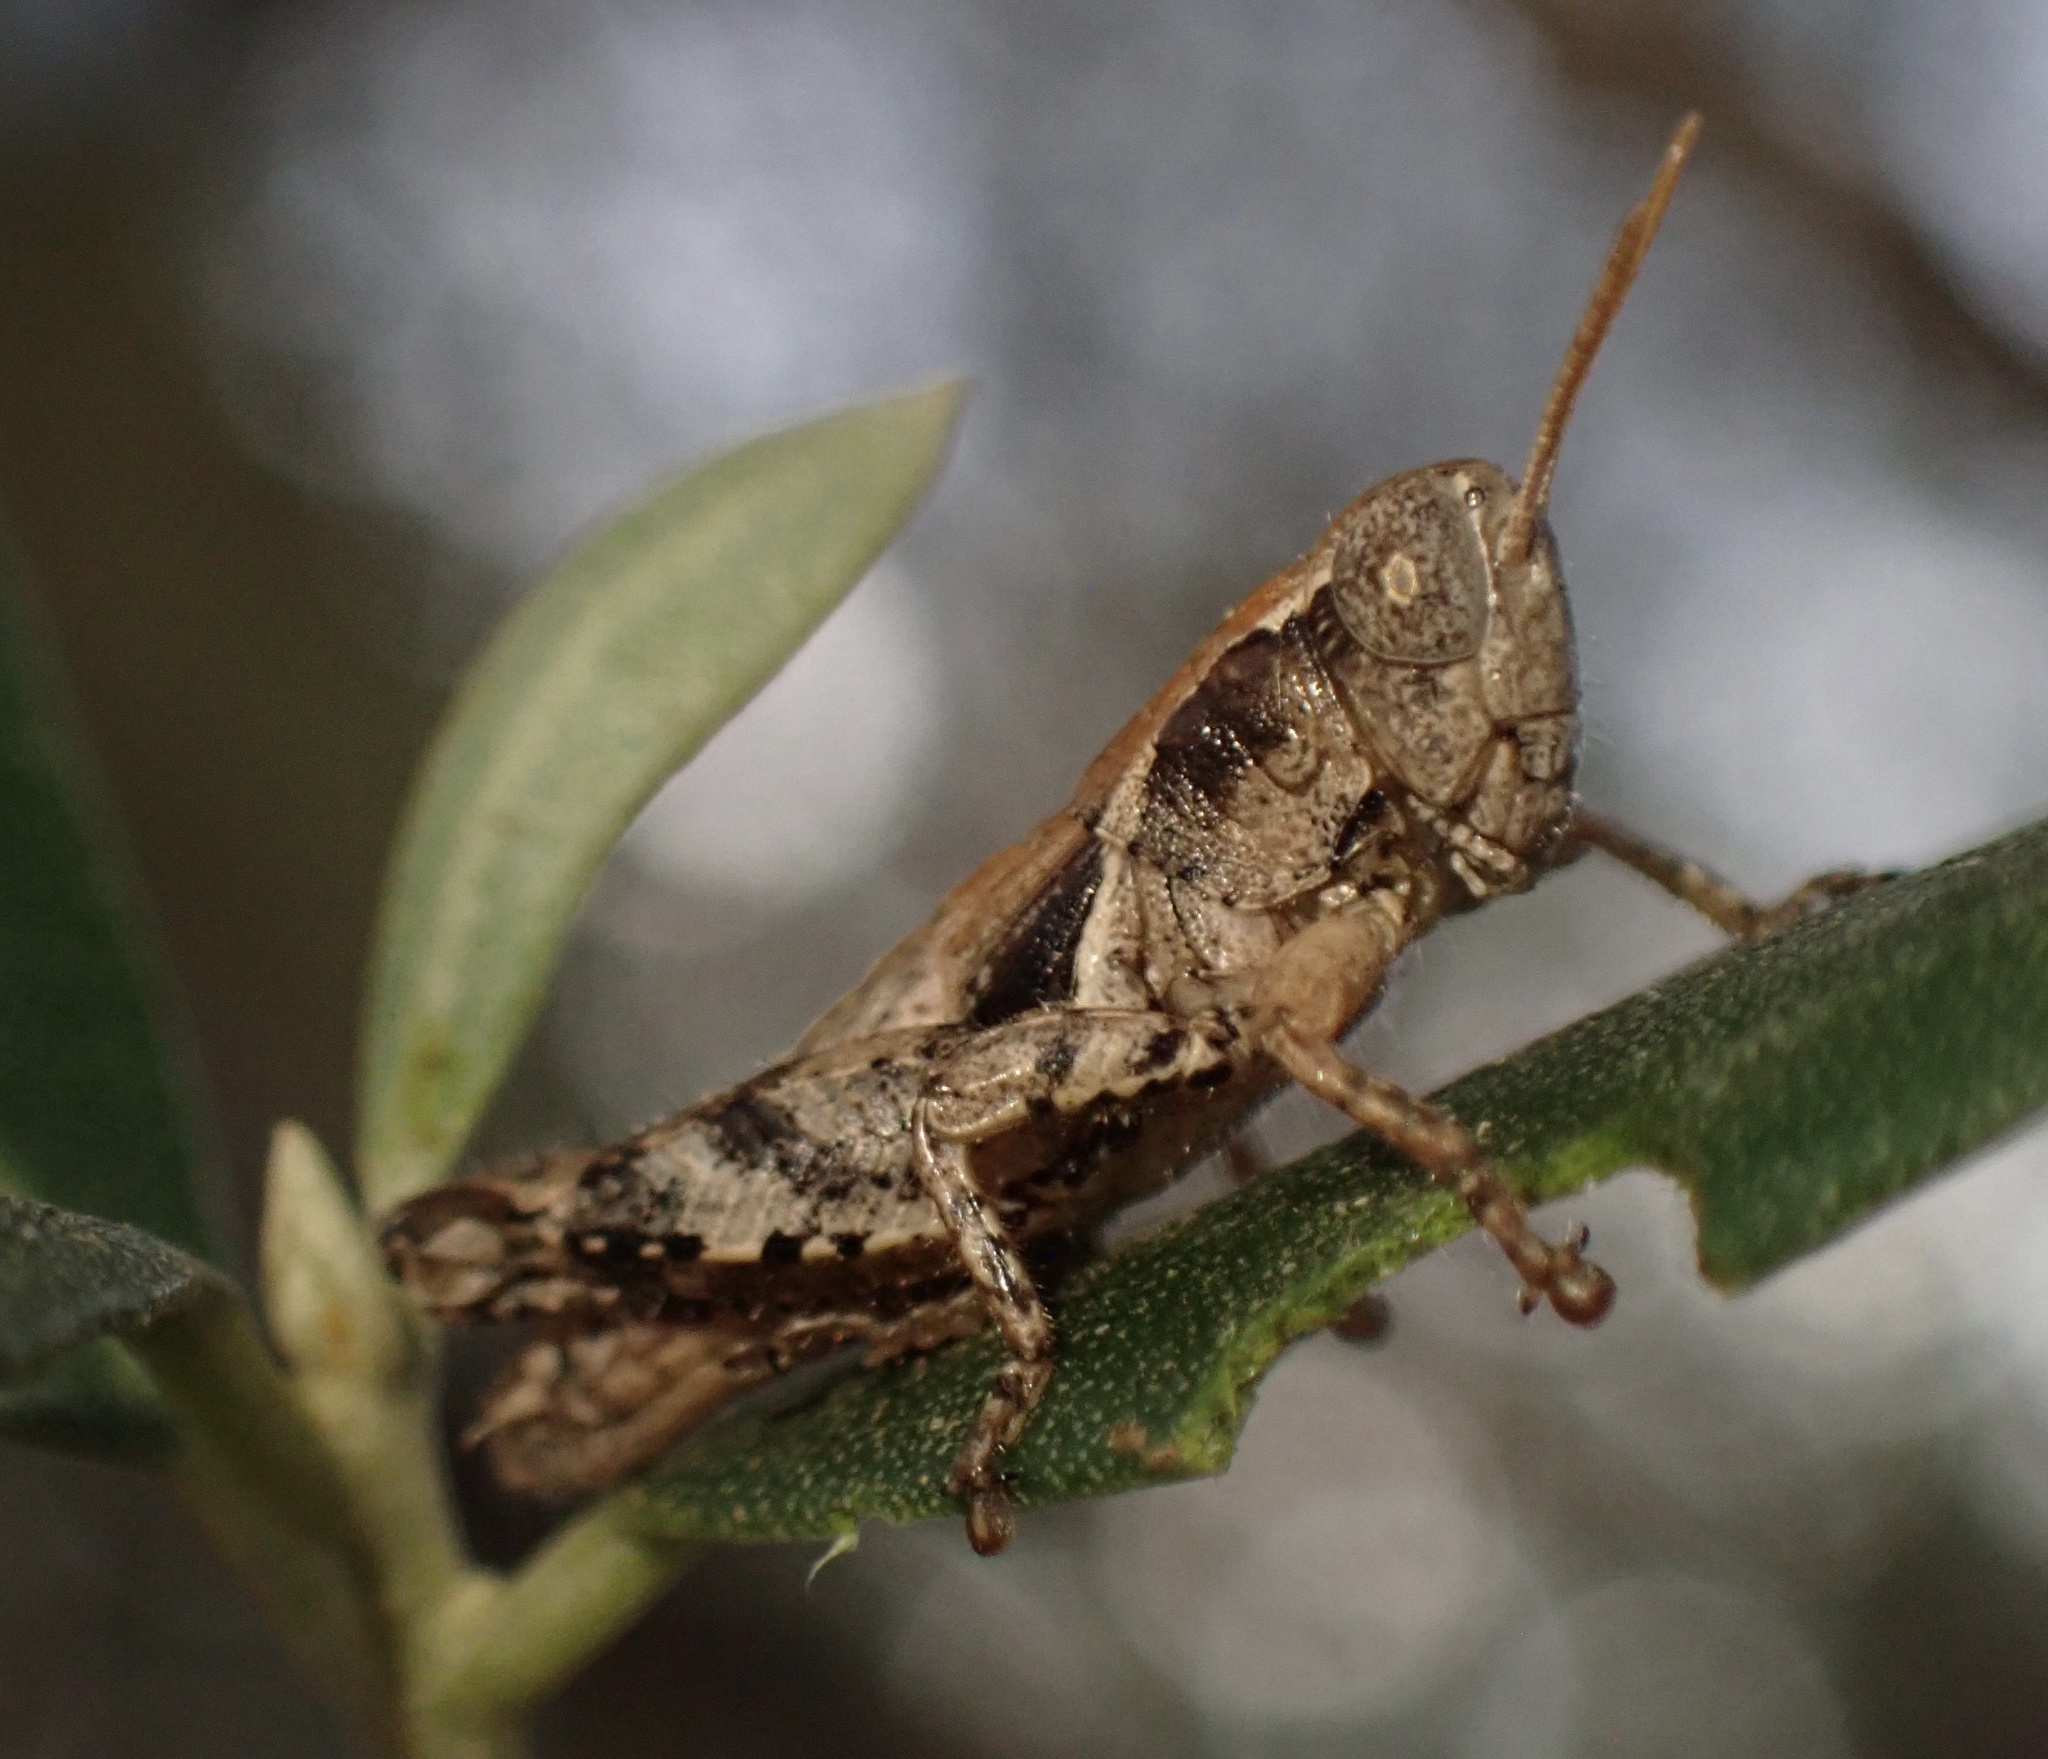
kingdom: Animalia
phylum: Arthropoda
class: Insecta
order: Orthoptera
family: Acrididae
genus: Pezotettix
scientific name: Pezotettix giornae
